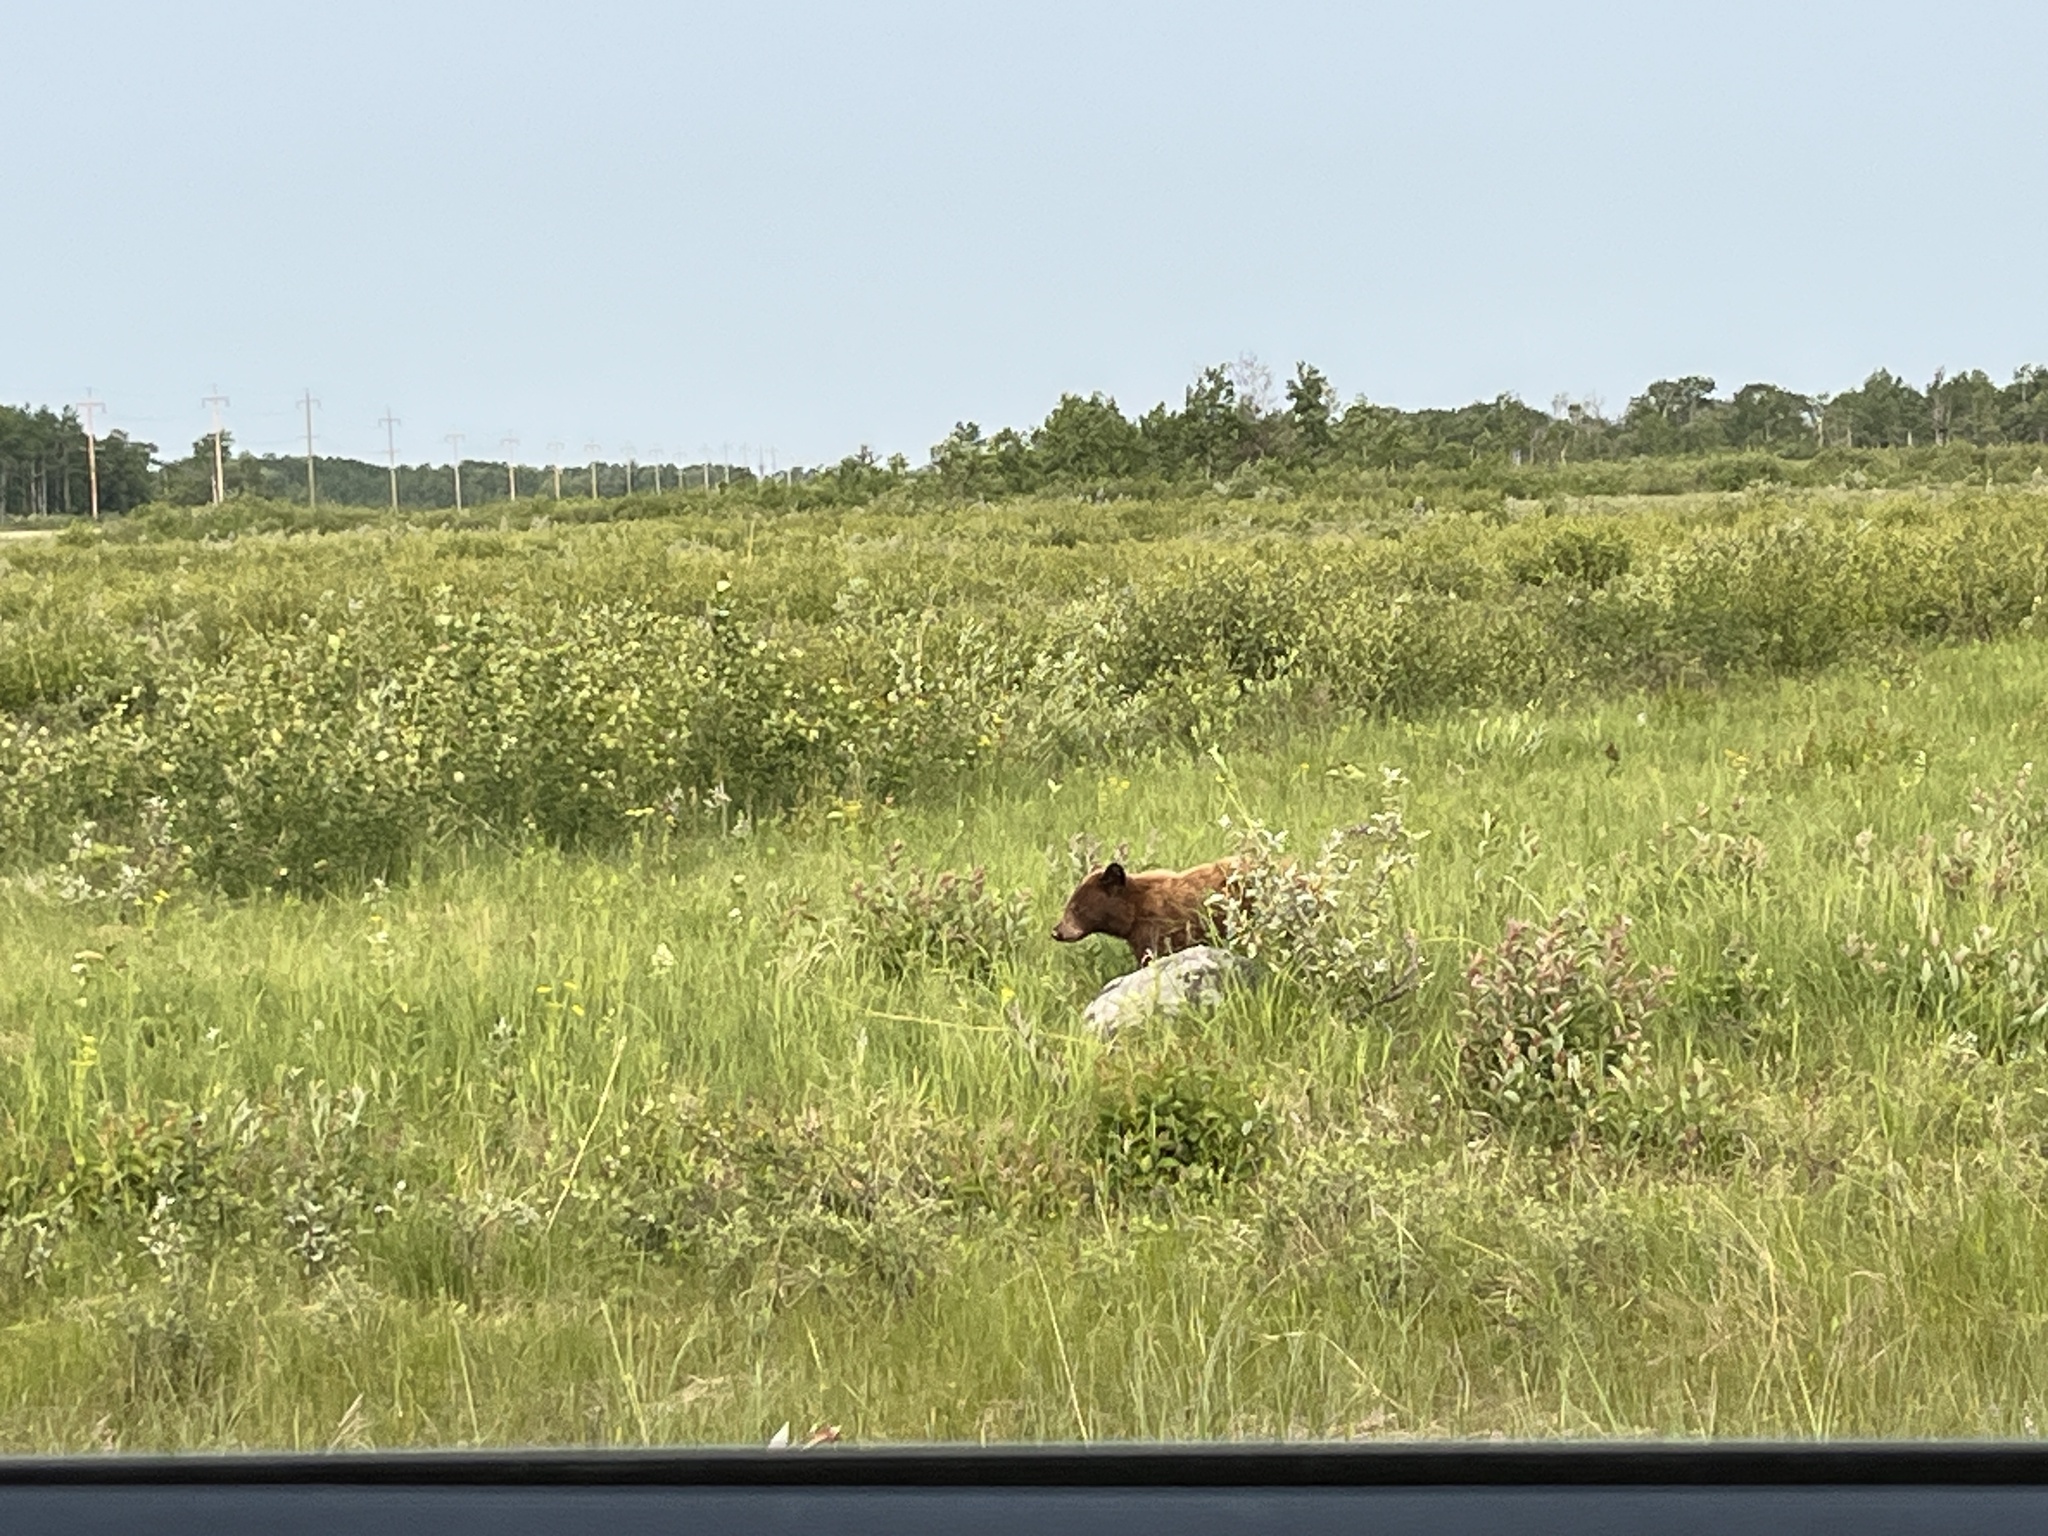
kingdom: Animalia
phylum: Chordata
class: Mammalia
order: Carnivora
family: Ursidae
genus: Ursus
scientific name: Ursus americanus
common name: American black bear
